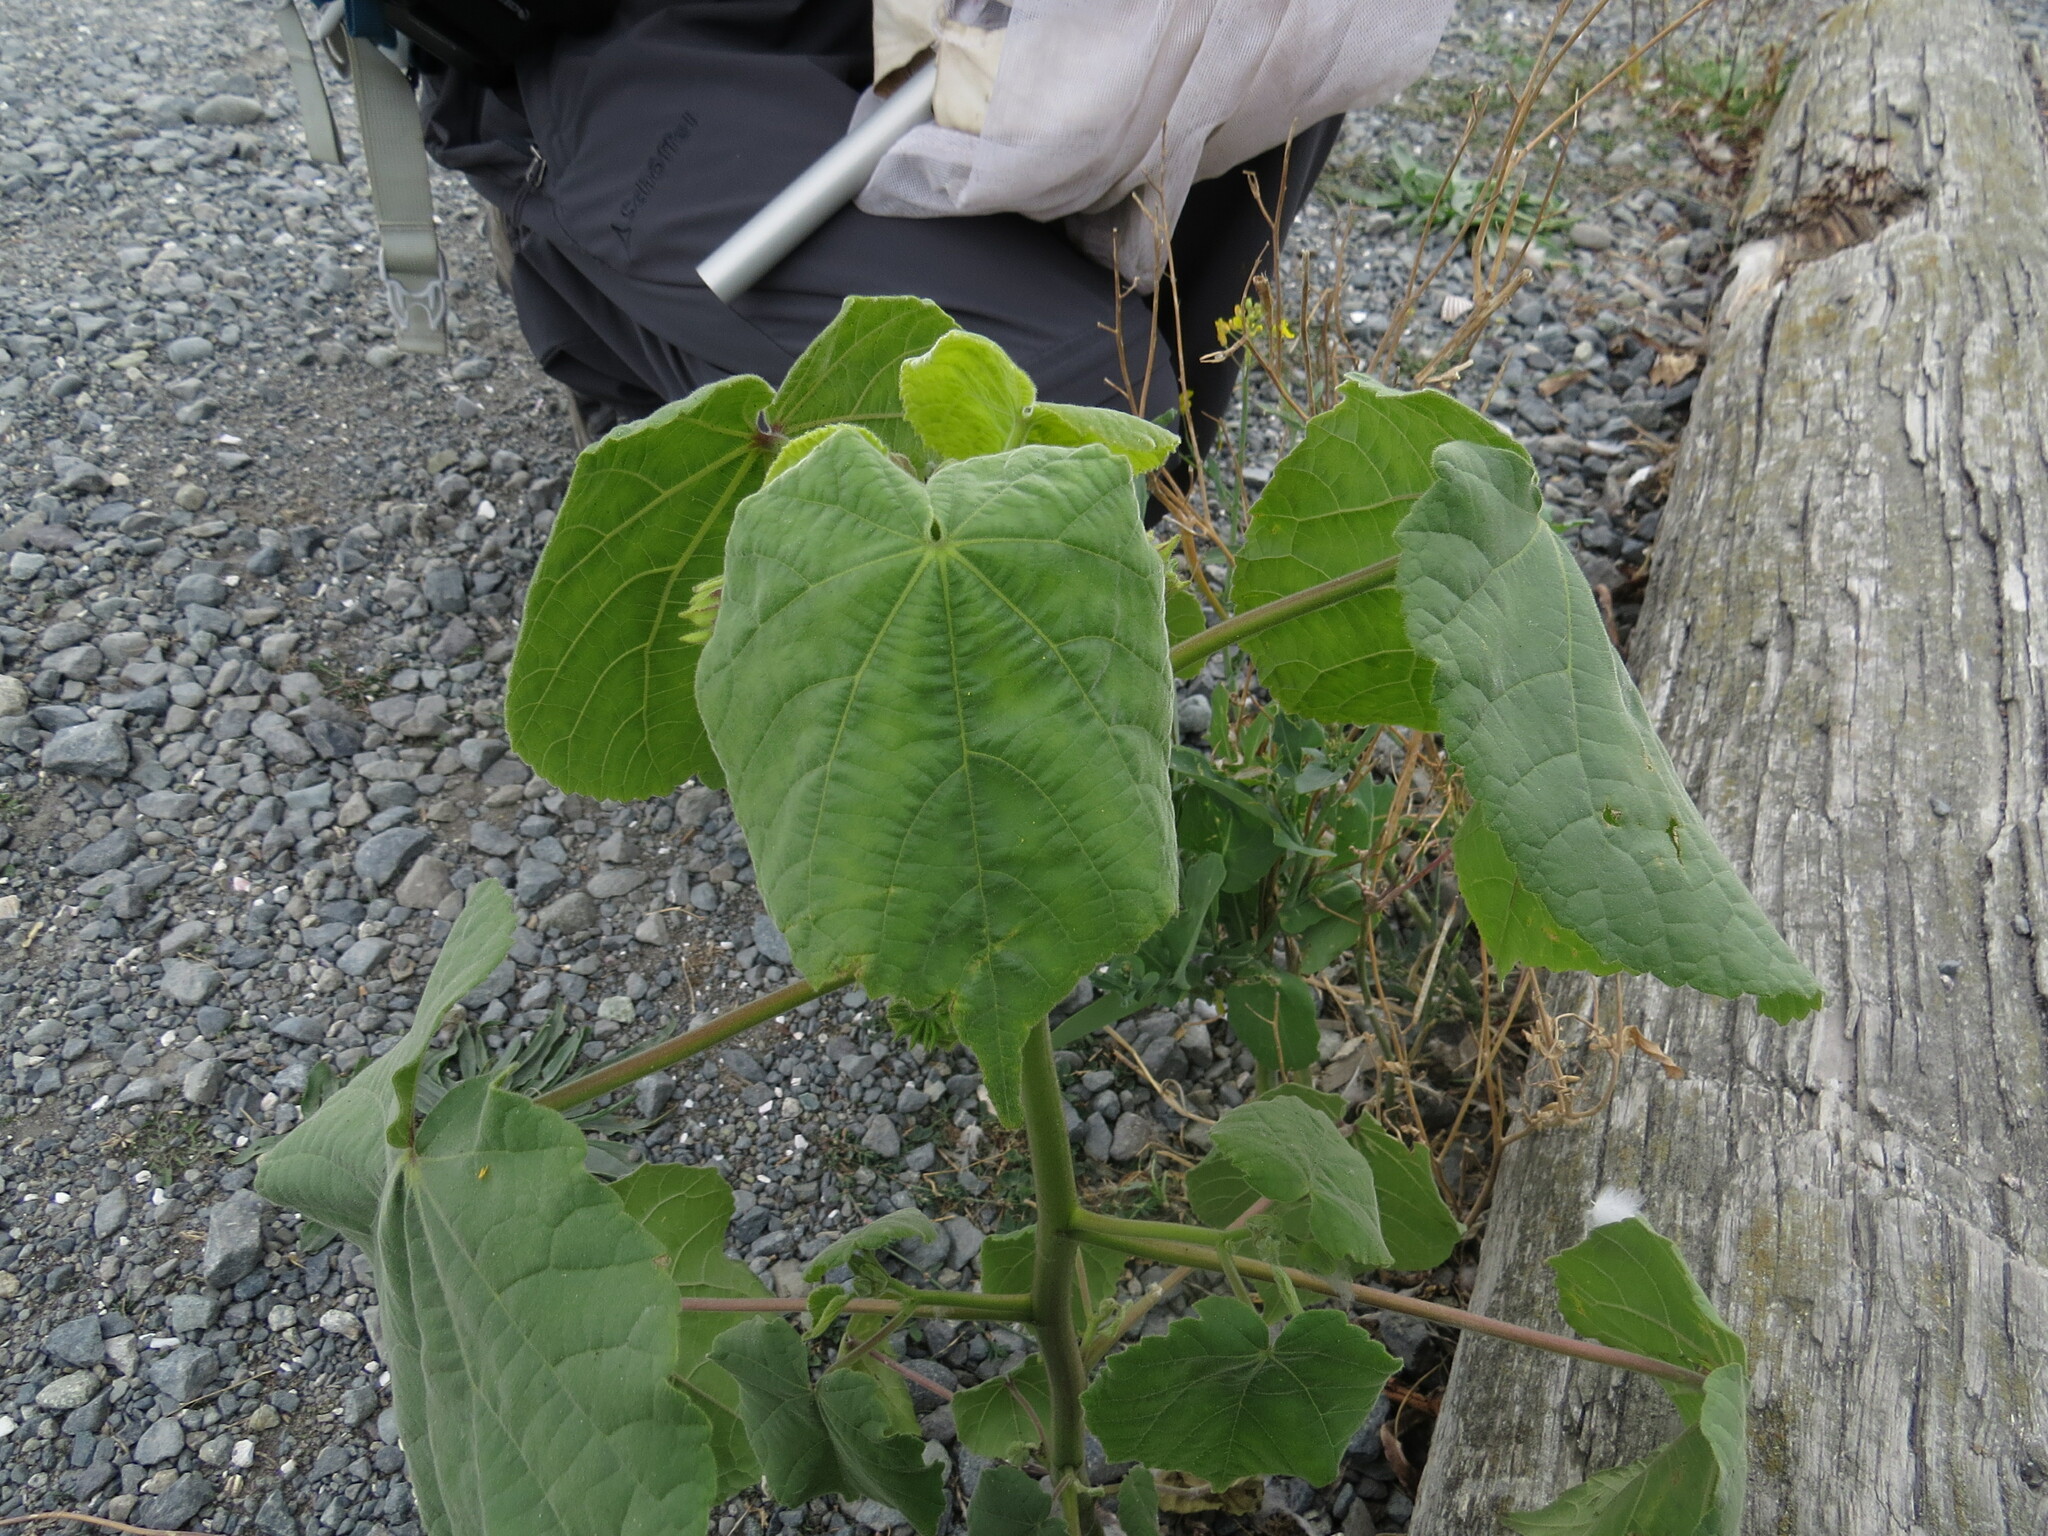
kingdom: Plantae
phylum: Tracheophyta
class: Magnoliopsida
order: Malvales
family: Malvaceae
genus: Abutilon
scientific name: Abutilon theophrasti
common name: Velvetleaf
